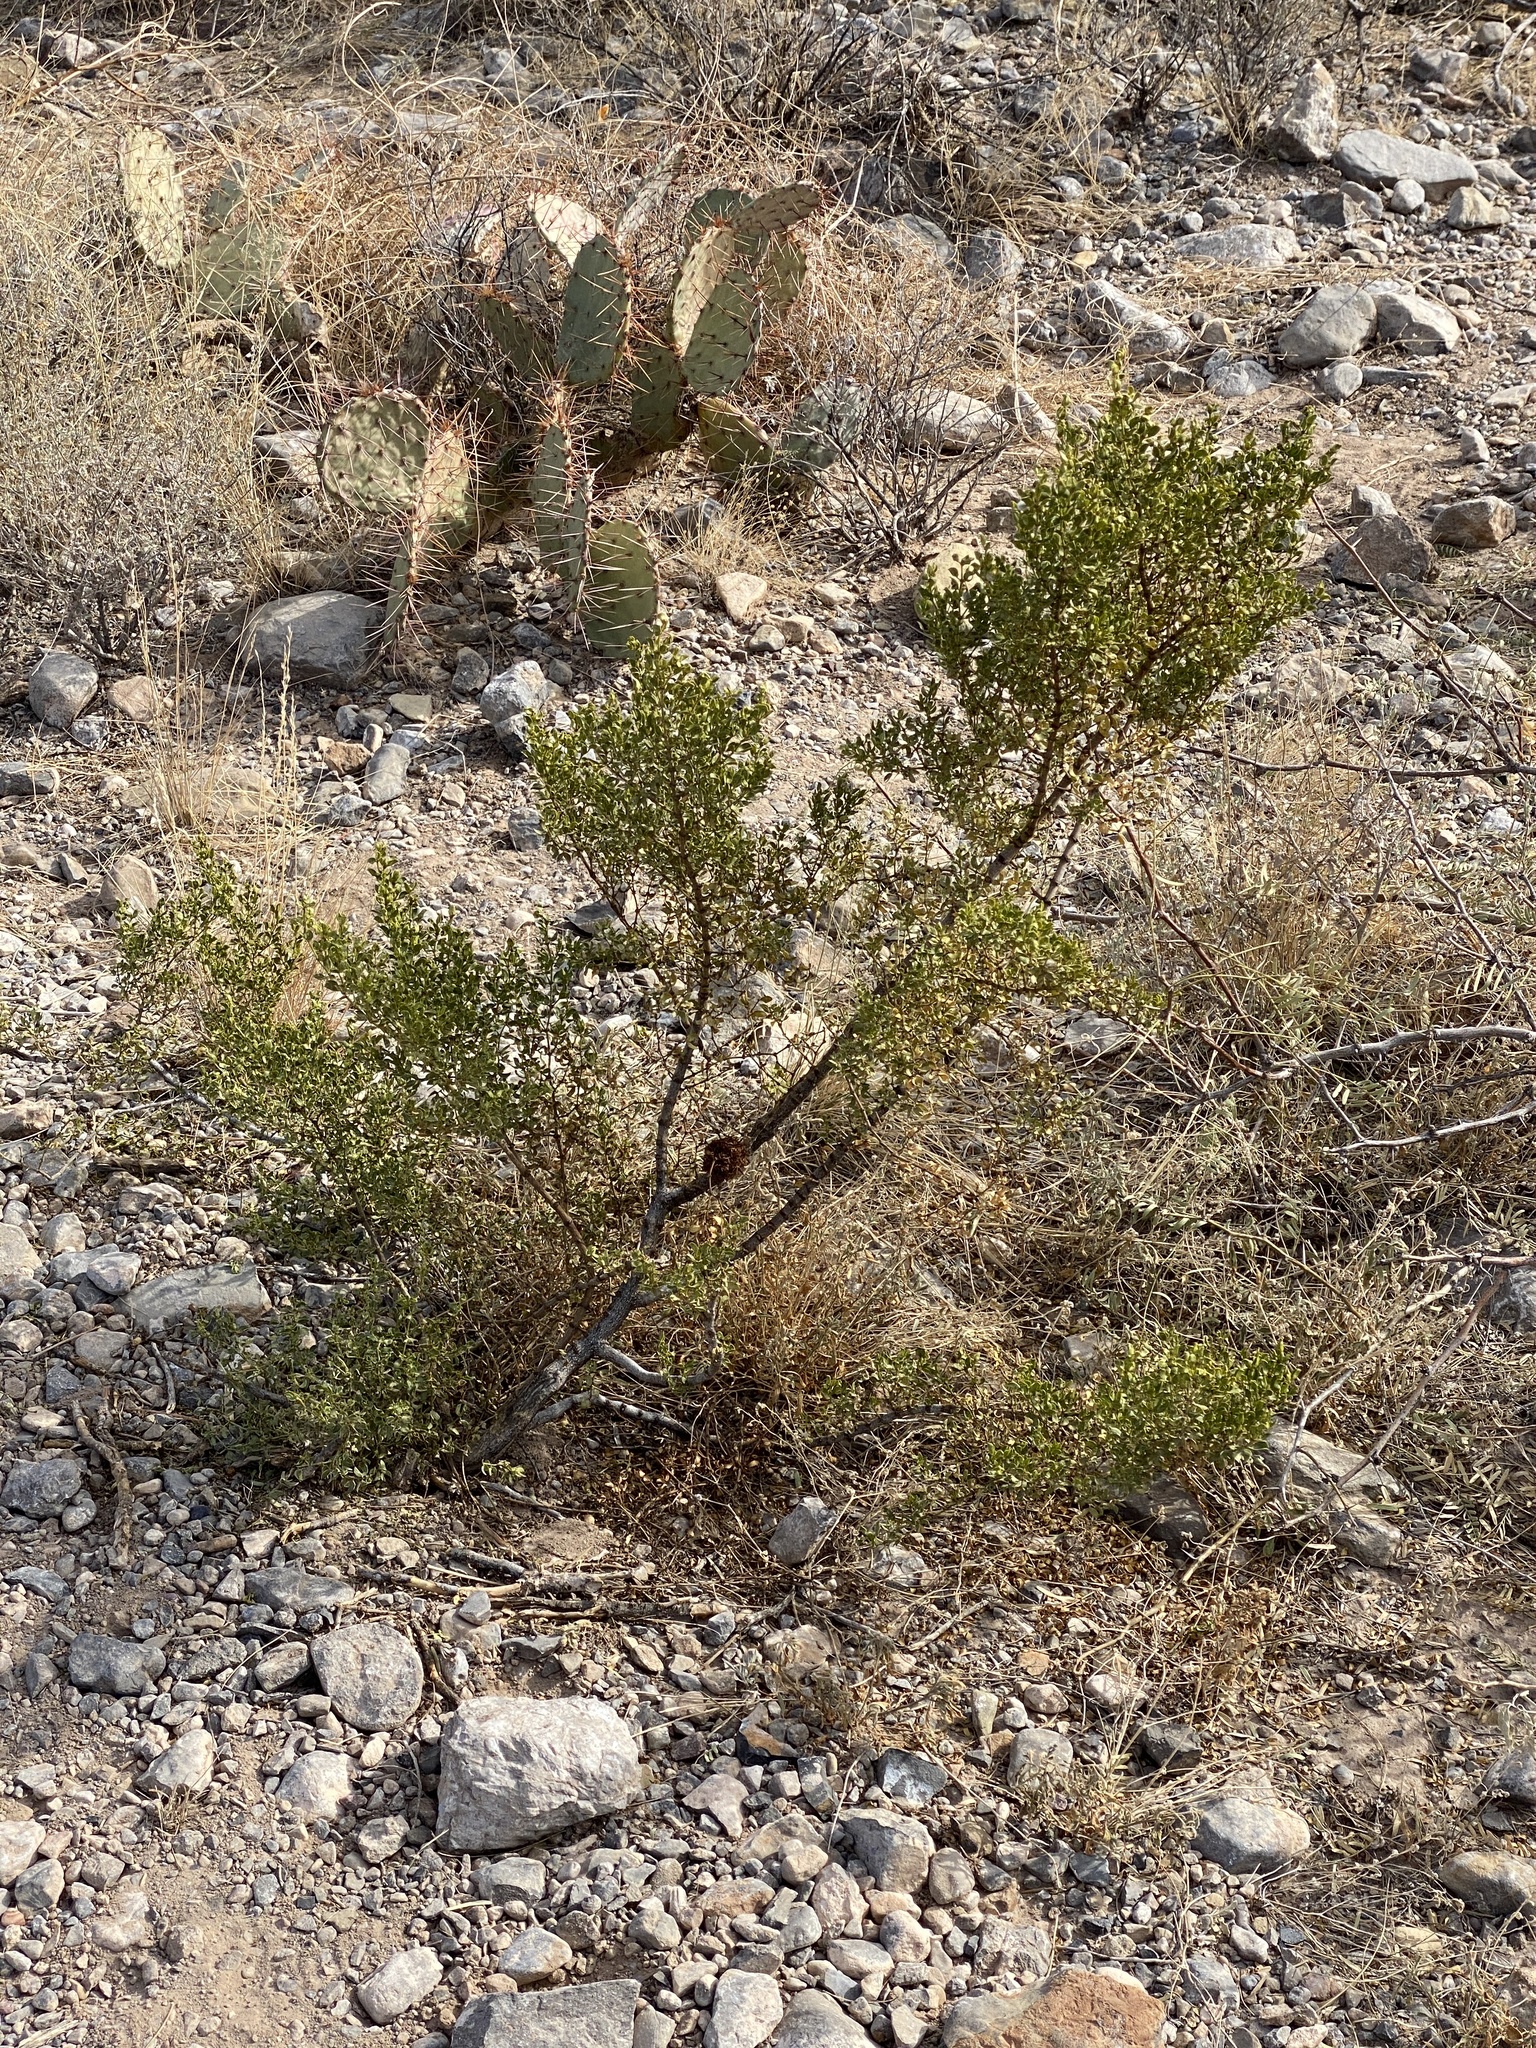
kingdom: Plantae
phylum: Tracheophyta
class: Magnoliopsida
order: Zygophyllales
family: Zygophyllaceae
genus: Larrea
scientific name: Larrea tridentata
